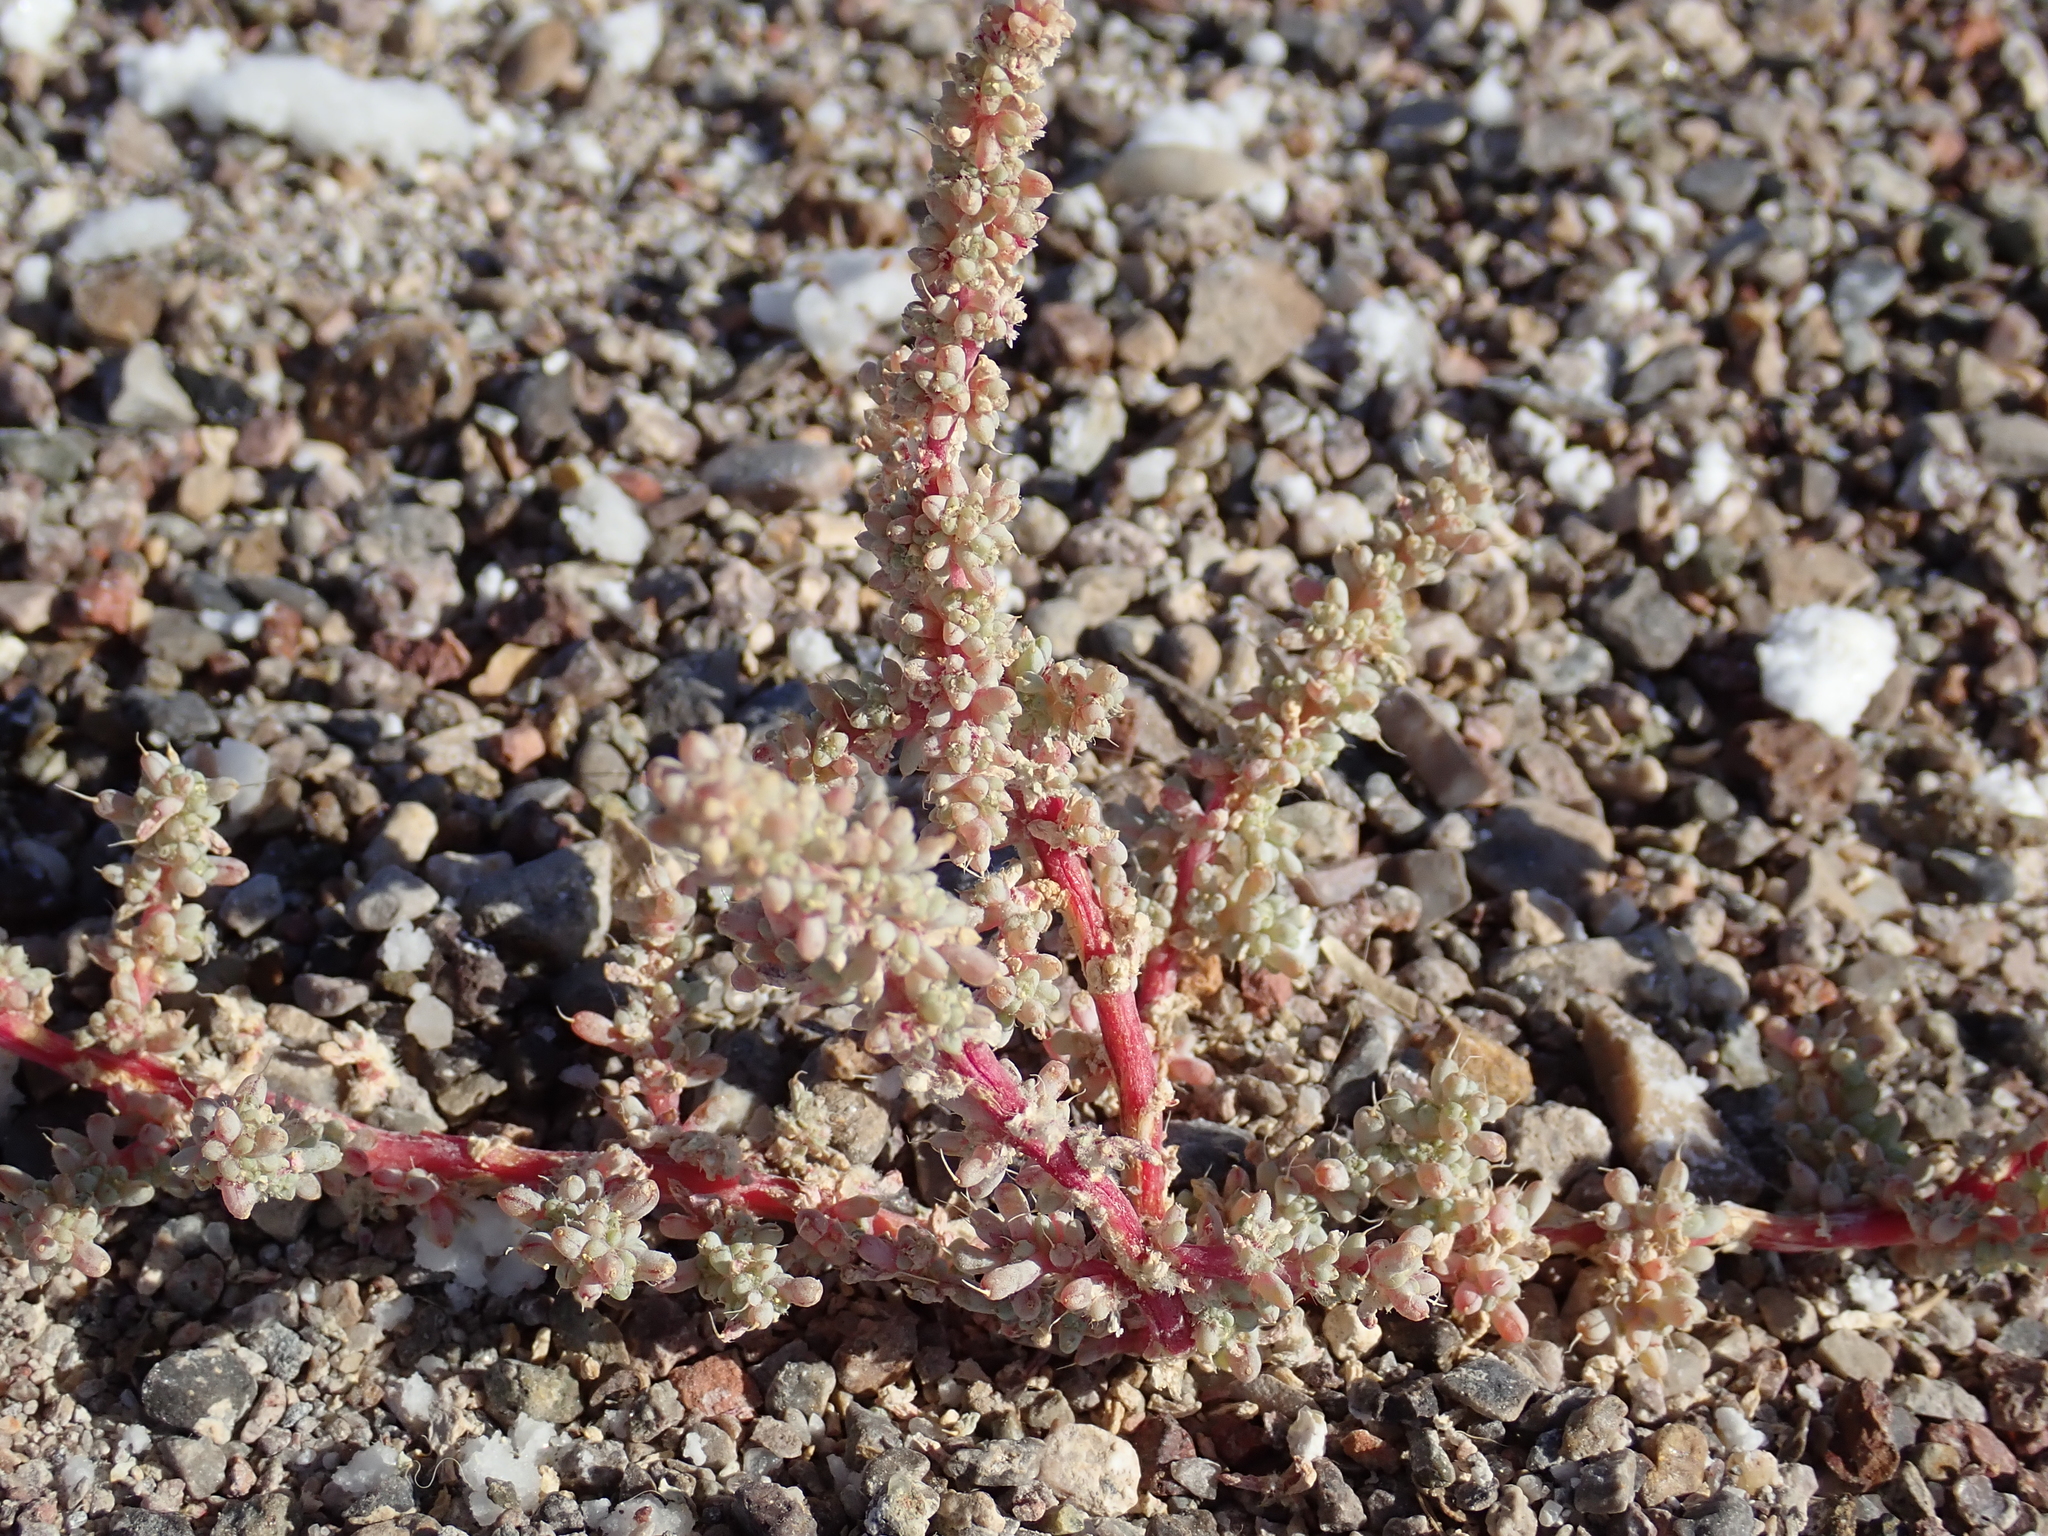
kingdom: Plantae
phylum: Tracheophyta
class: Magnoliopsida
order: Caryophyllales
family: Amaranthaceae
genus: Halogeton
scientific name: Halogeton glomeratus
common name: Saltlover
